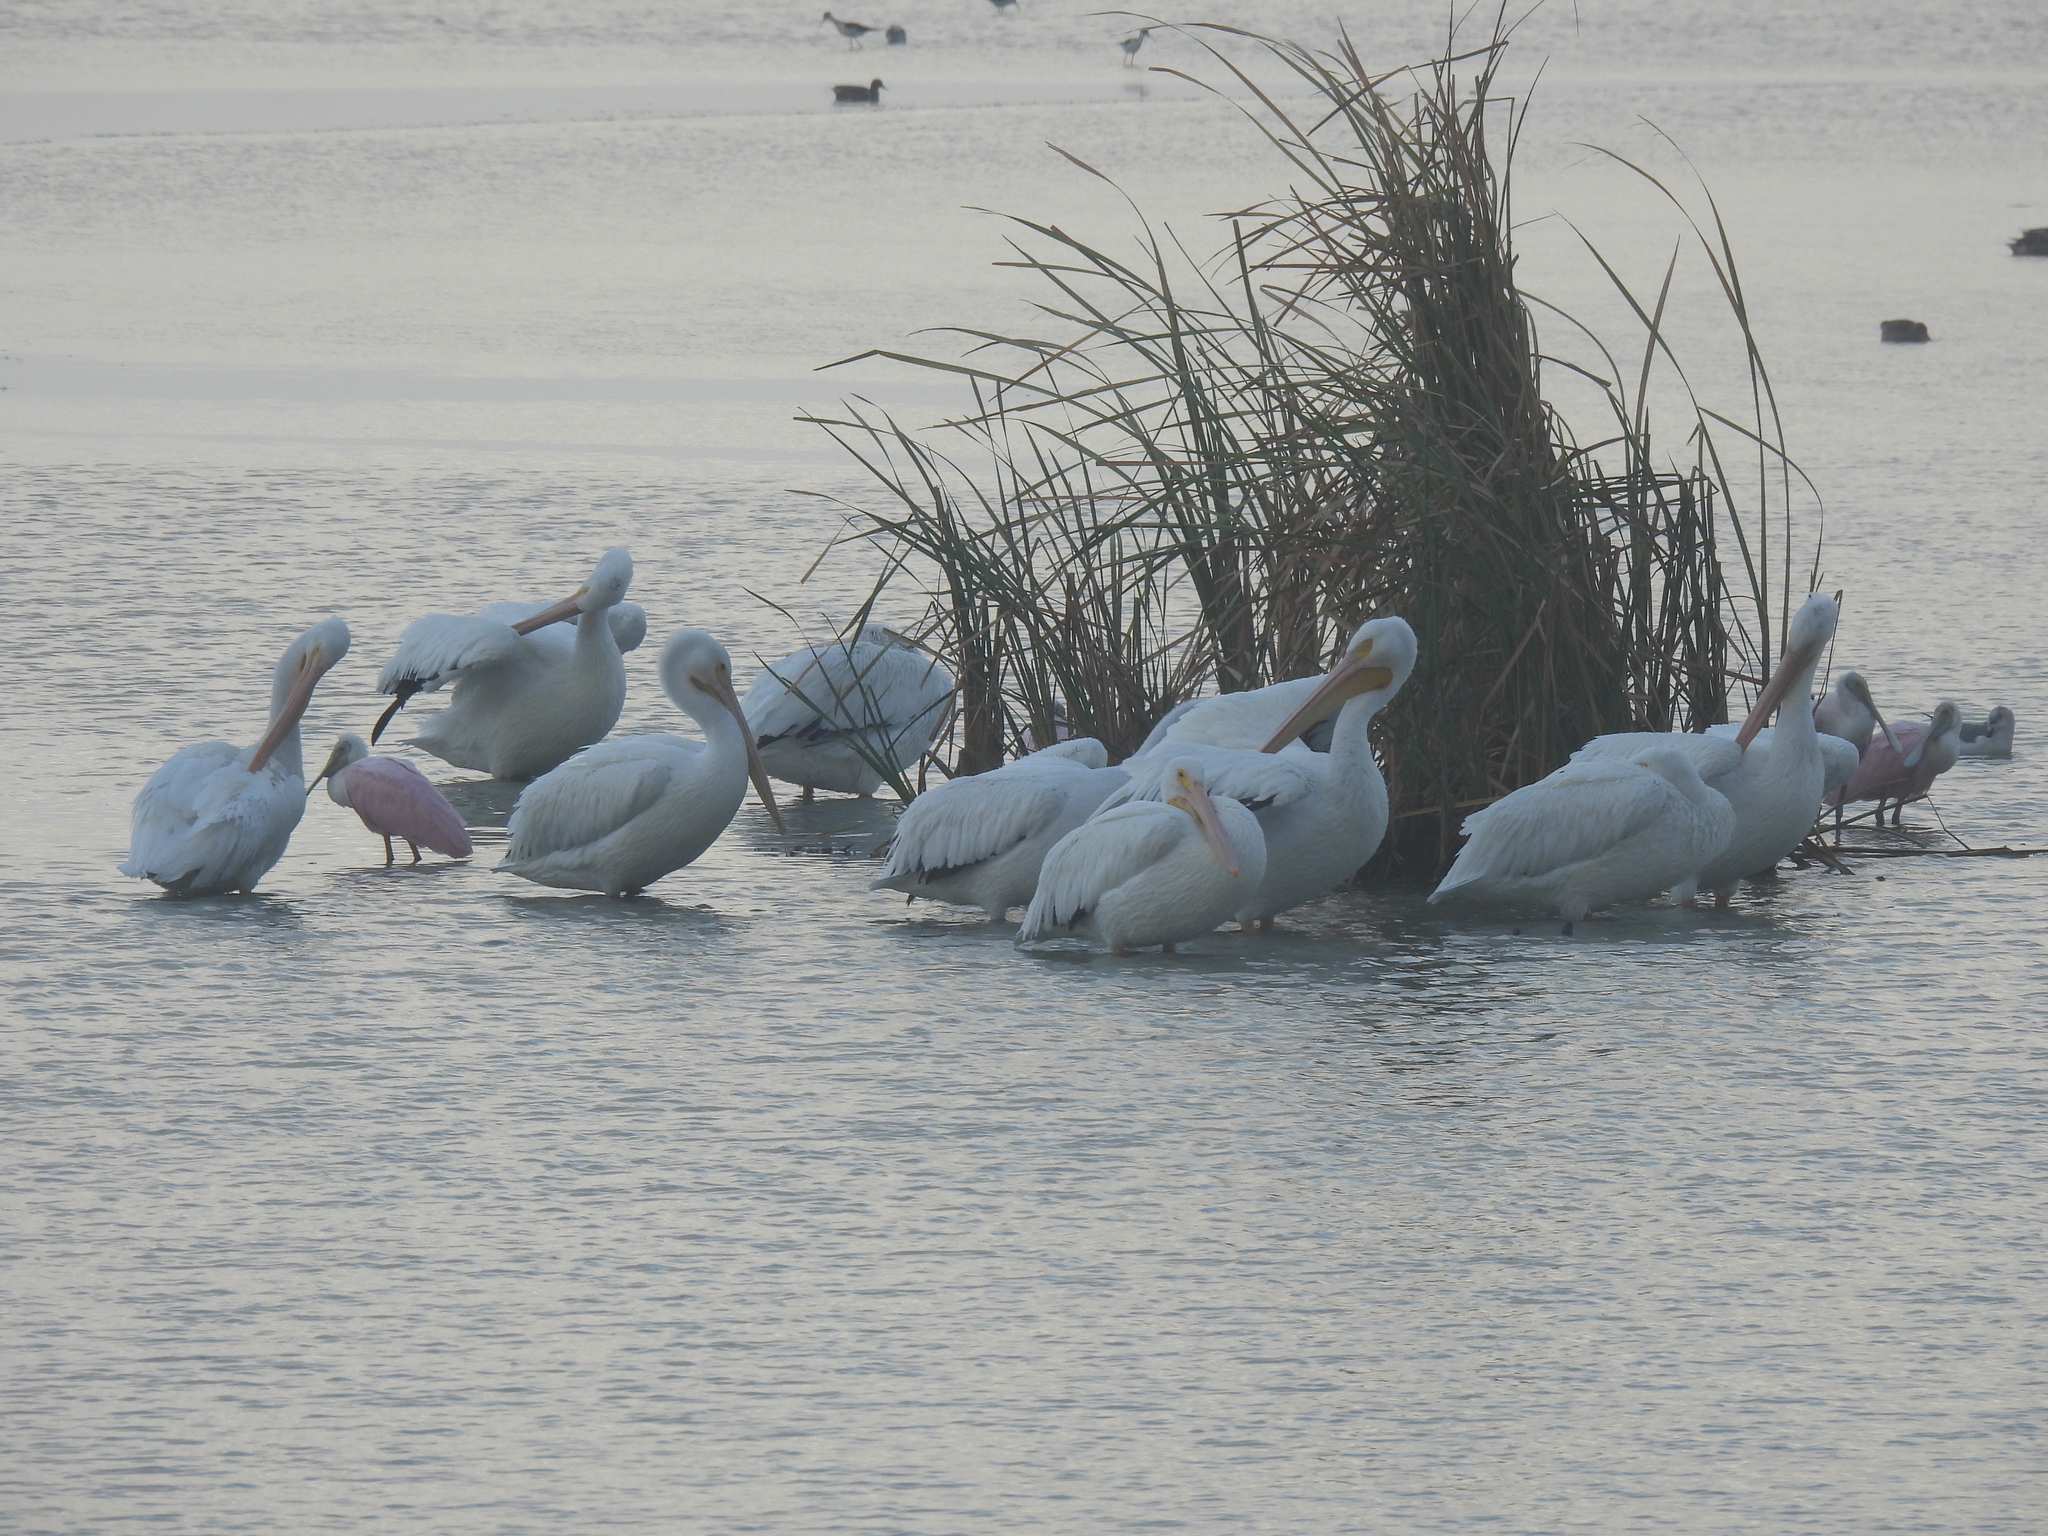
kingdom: Animalia
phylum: Chordata
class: Aves
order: Pelecaniformes
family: Pelecanidae
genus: Pelecanus
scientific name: Pelecanus erythrorhynchos
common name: American white pelican
